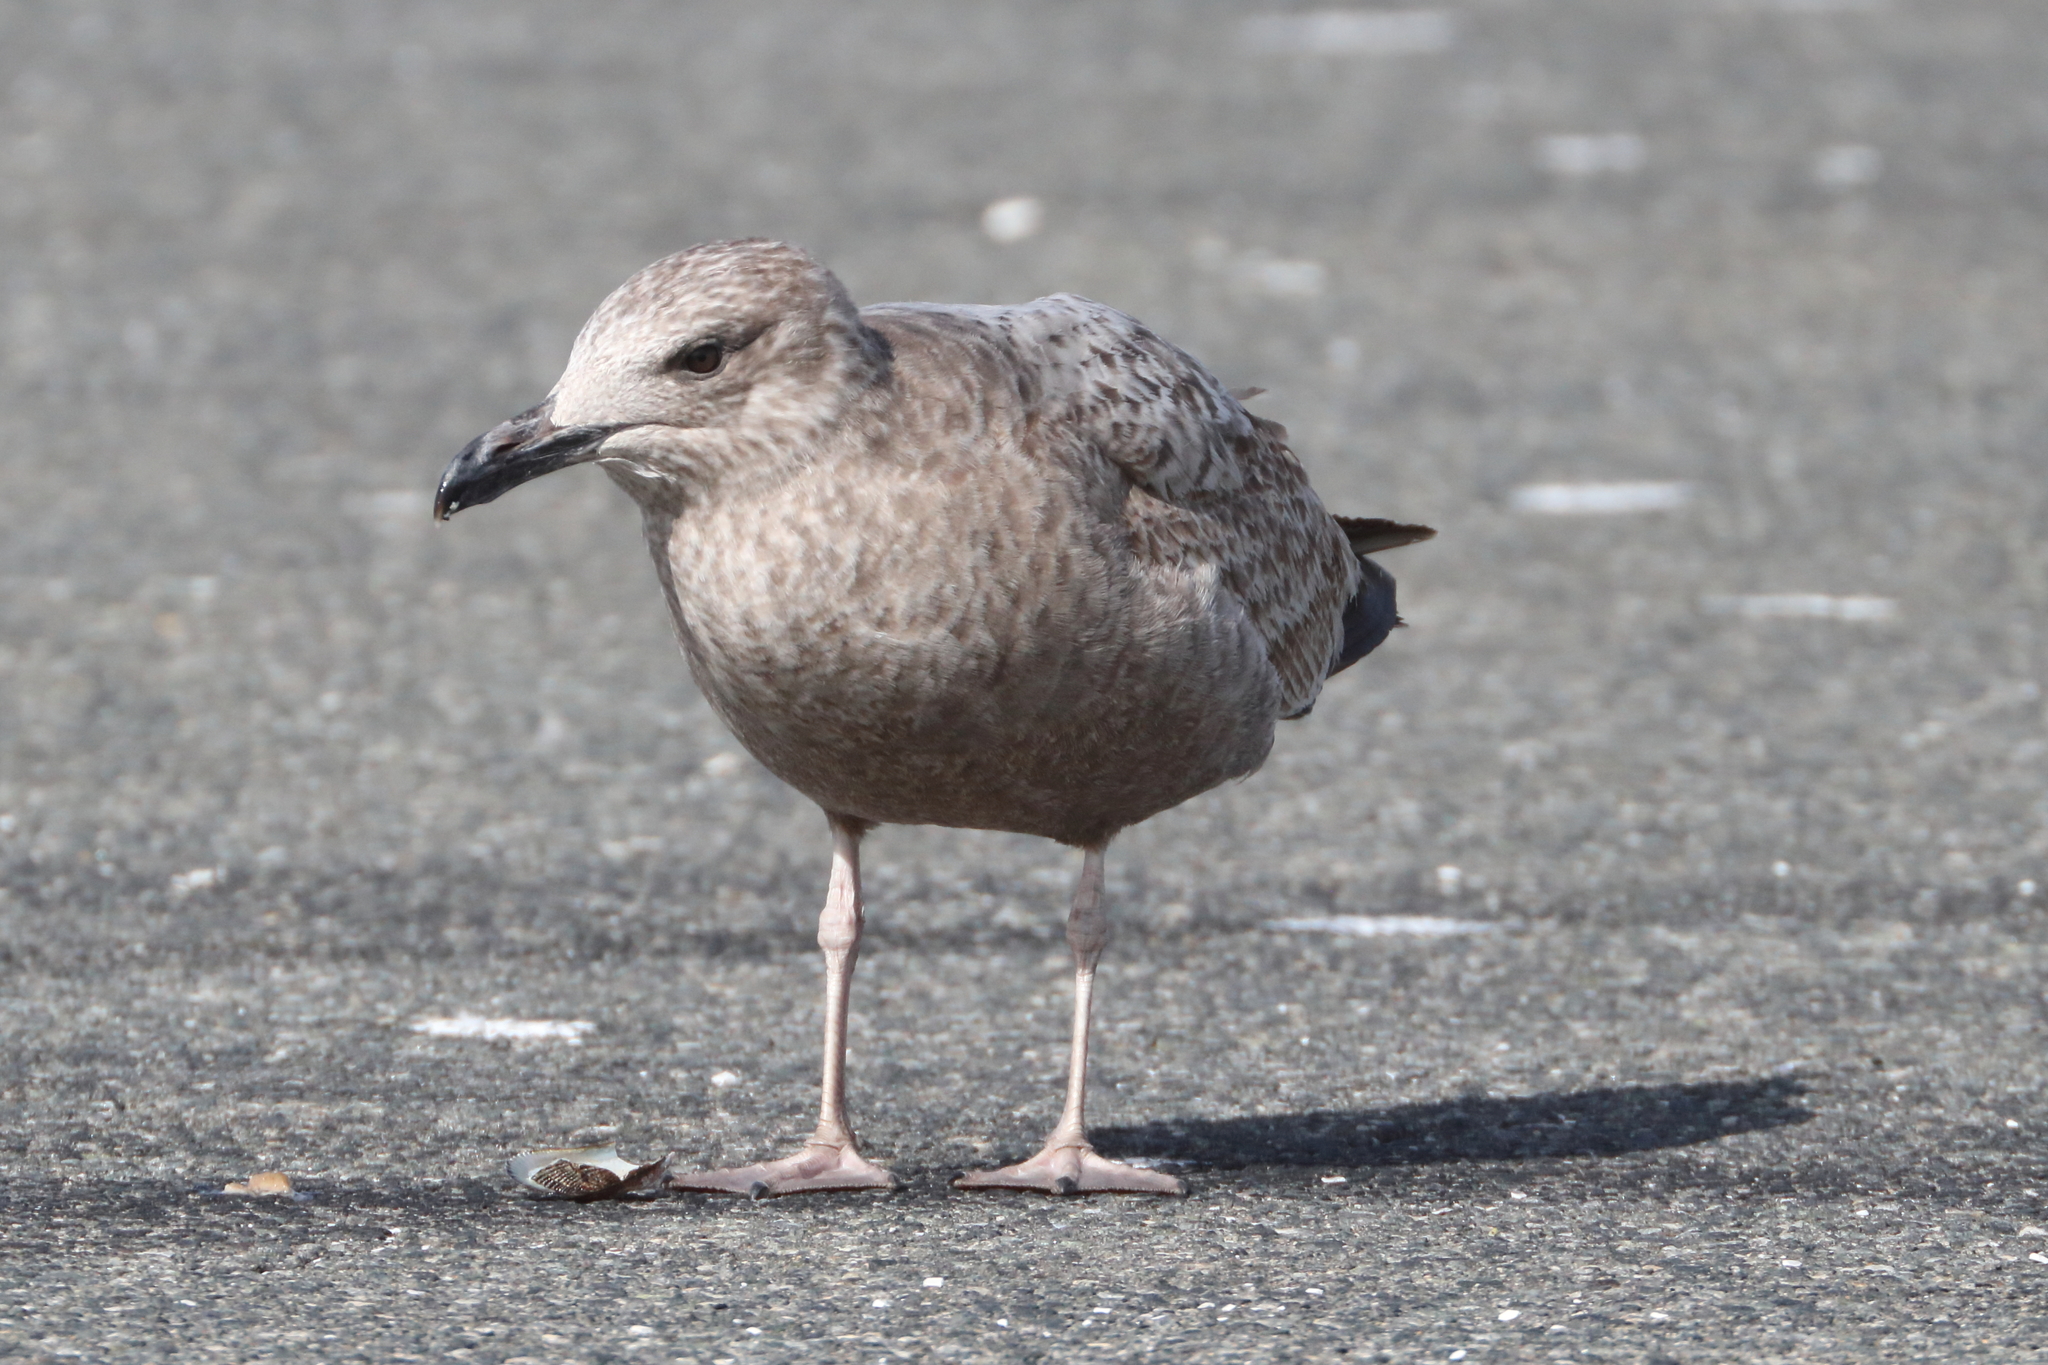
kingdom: Animalia
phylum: Chordata
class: Aves
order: Charadriiformes
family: Laridae
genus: Larus
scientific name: Larus smithsonianus
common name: American herring gull
